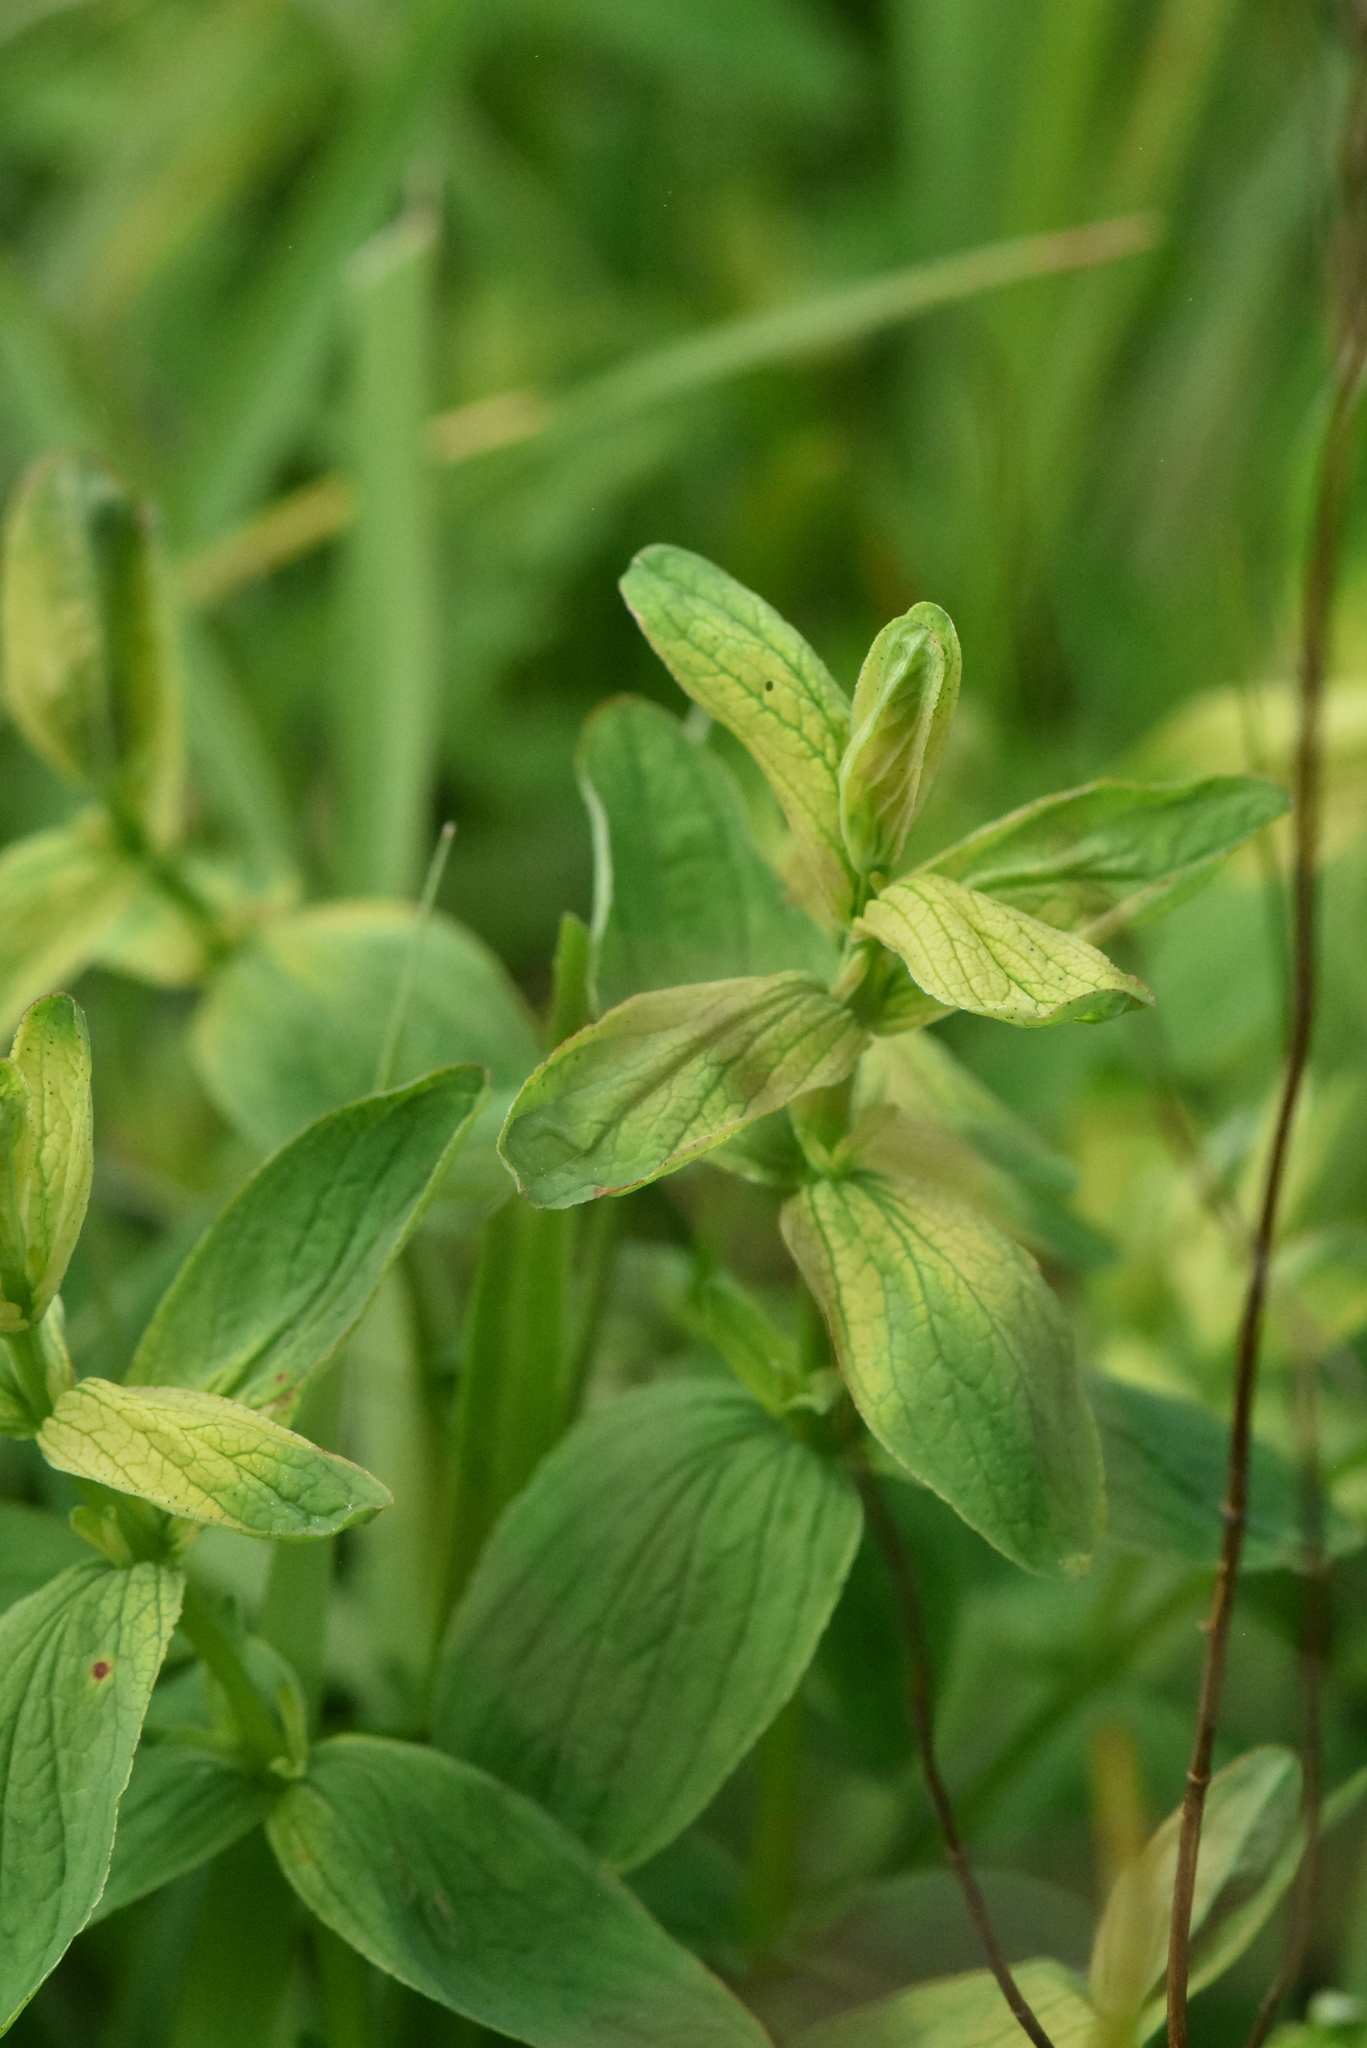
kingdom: Plantae
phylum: Tracheophyta
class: Magnoliopsida
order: Malpighiales
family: Hypericaceae
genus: Hypericum
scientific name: Hypericum maculatum
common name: Imperforate st. john's-wort
